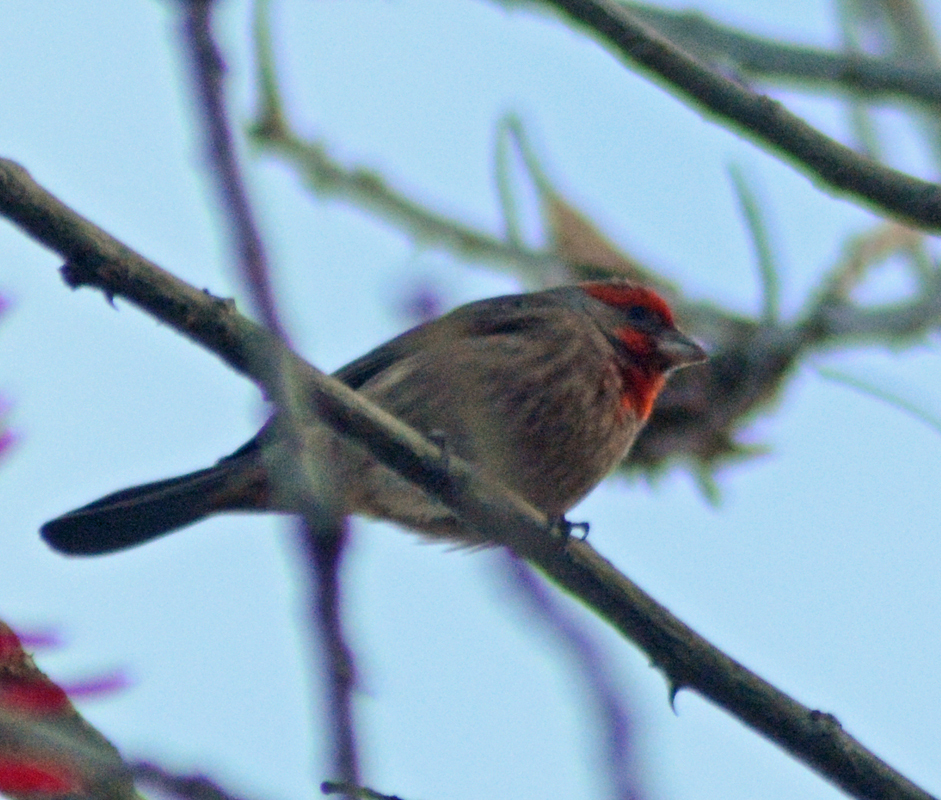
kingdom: Animalia
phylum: Chordata
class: Aves
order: Passeriformes
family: Fringillidae
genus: Haemorhous
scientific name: Haemorhous mexicanus
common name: House finch
